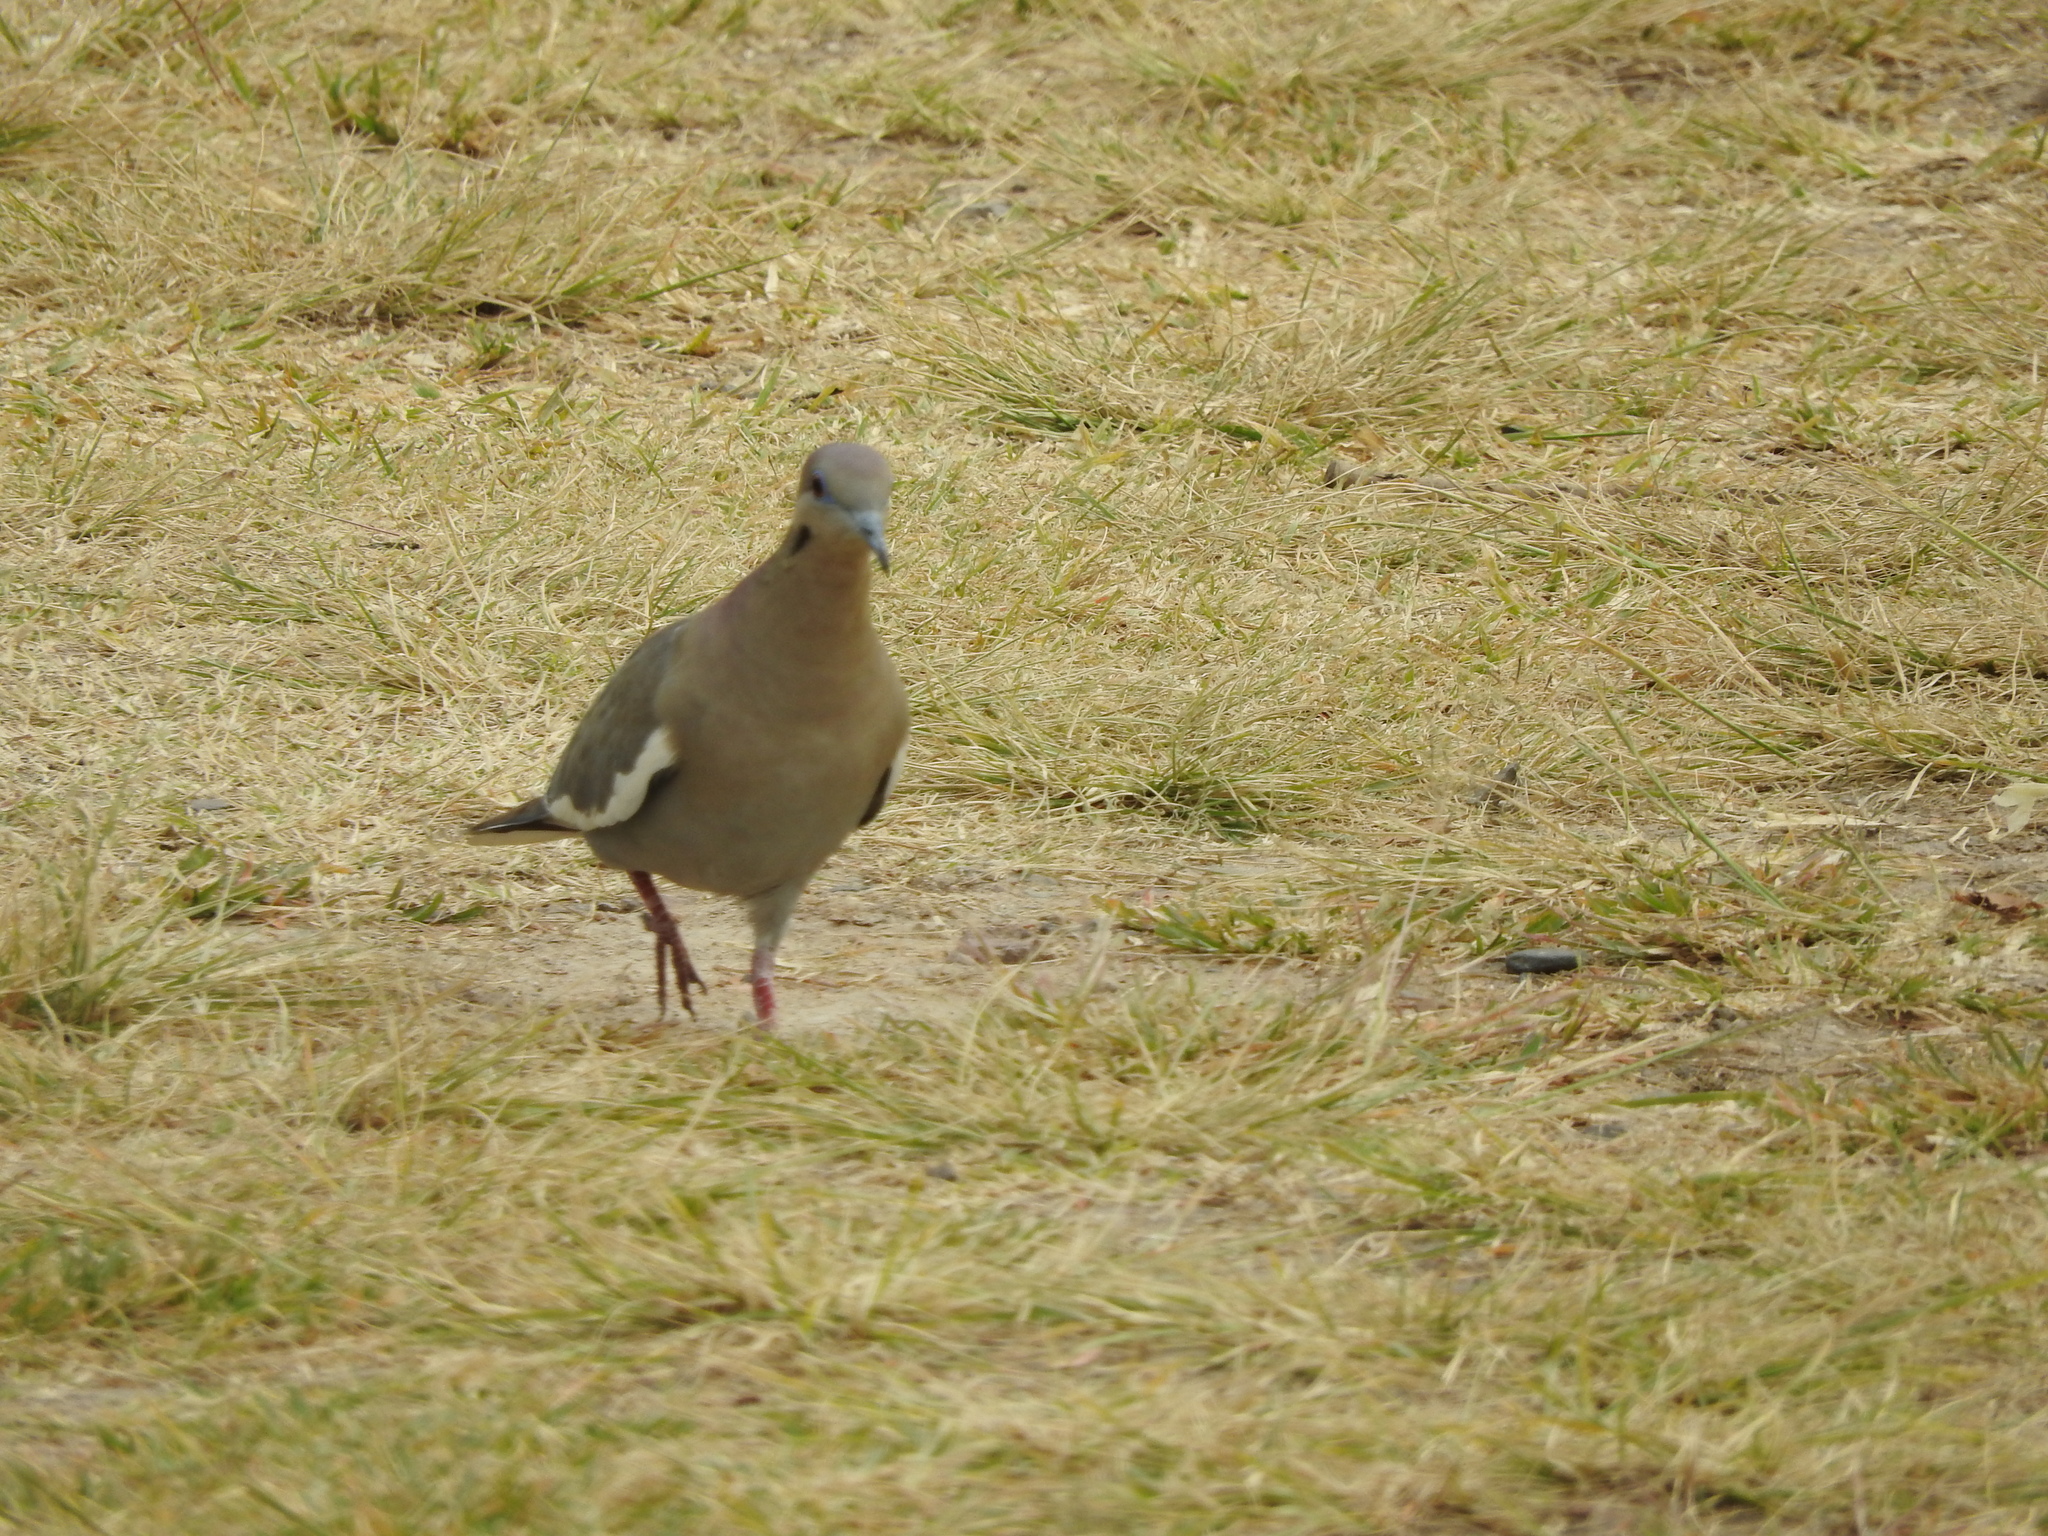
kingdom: Animalia
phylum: Chordata
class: Aves
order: Columbiformes
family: Columbidae
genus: Zenaida
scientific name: Zenaida asiatica
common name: White-winged dove
